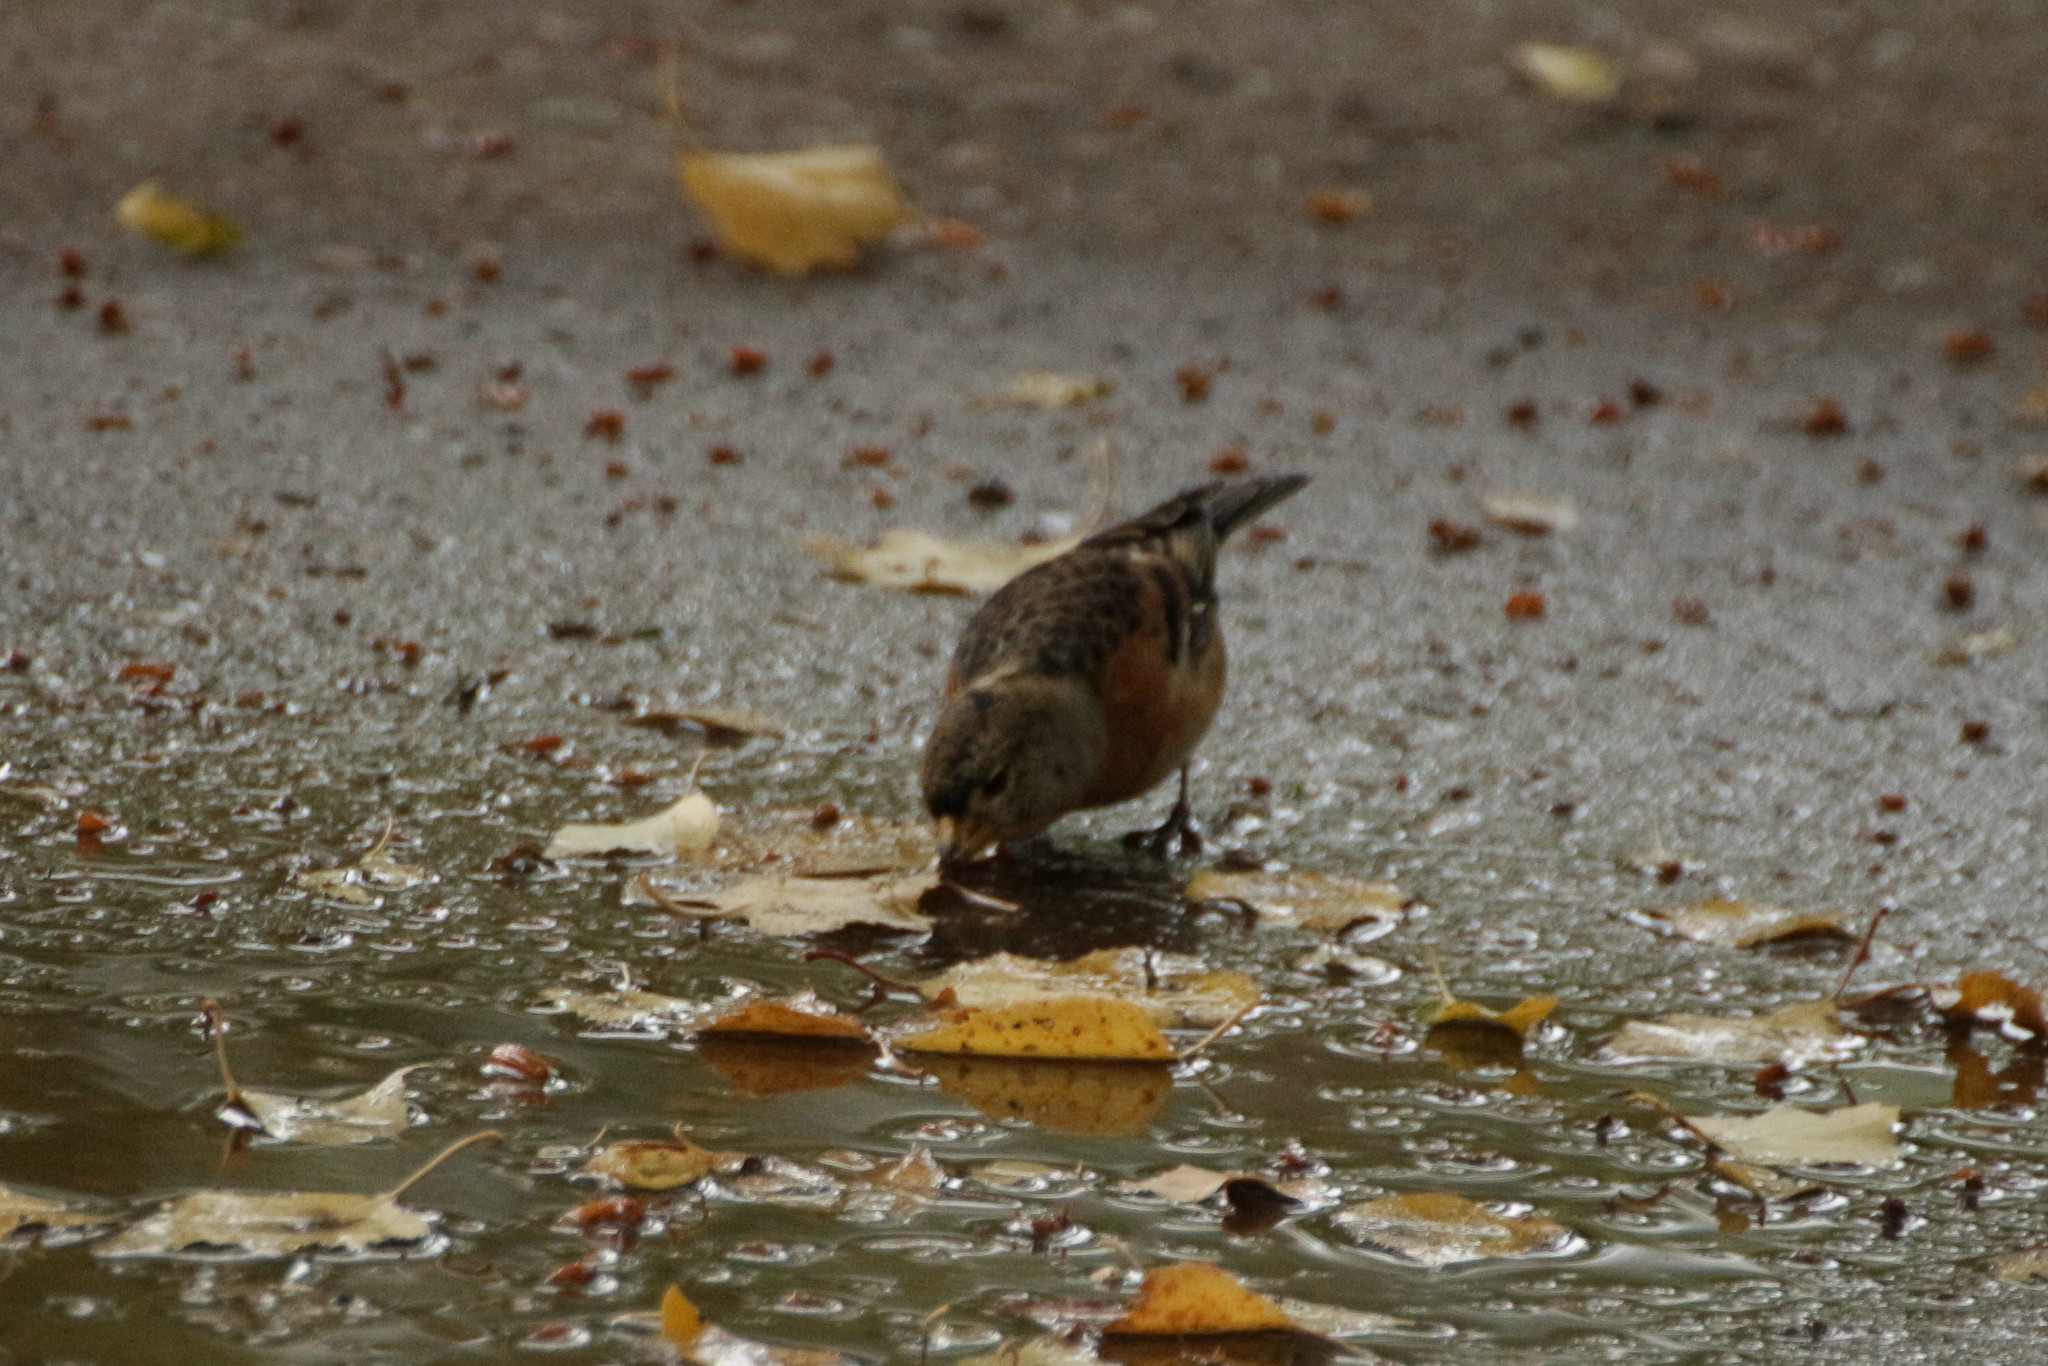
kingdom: Animalia
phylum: Chordata
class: Aves
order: Passeriformes
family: Fringillidae
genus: Fringilla
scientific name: Fringilla montifringilla
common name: Brambling
